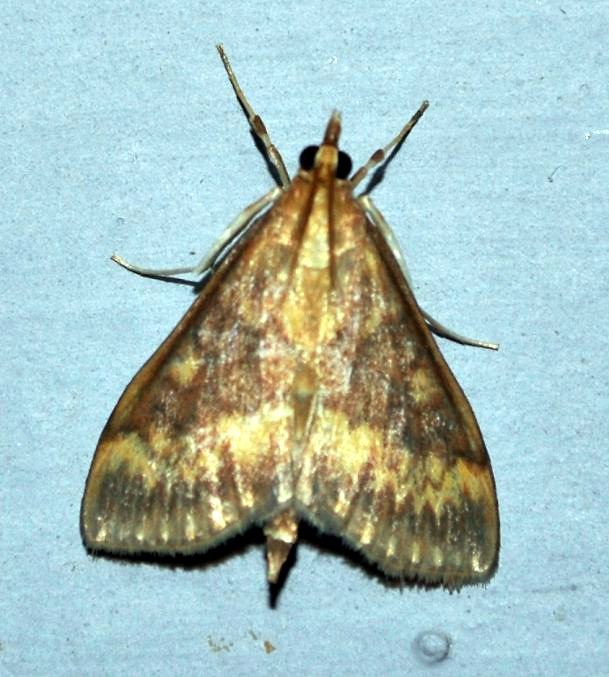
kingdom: Animalia
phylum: Arthropoda
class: Insecta
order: Lepidoptera
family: Crambidae
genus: Ostrinia
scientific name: Ostrinia nubilalis
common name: European corn borer
